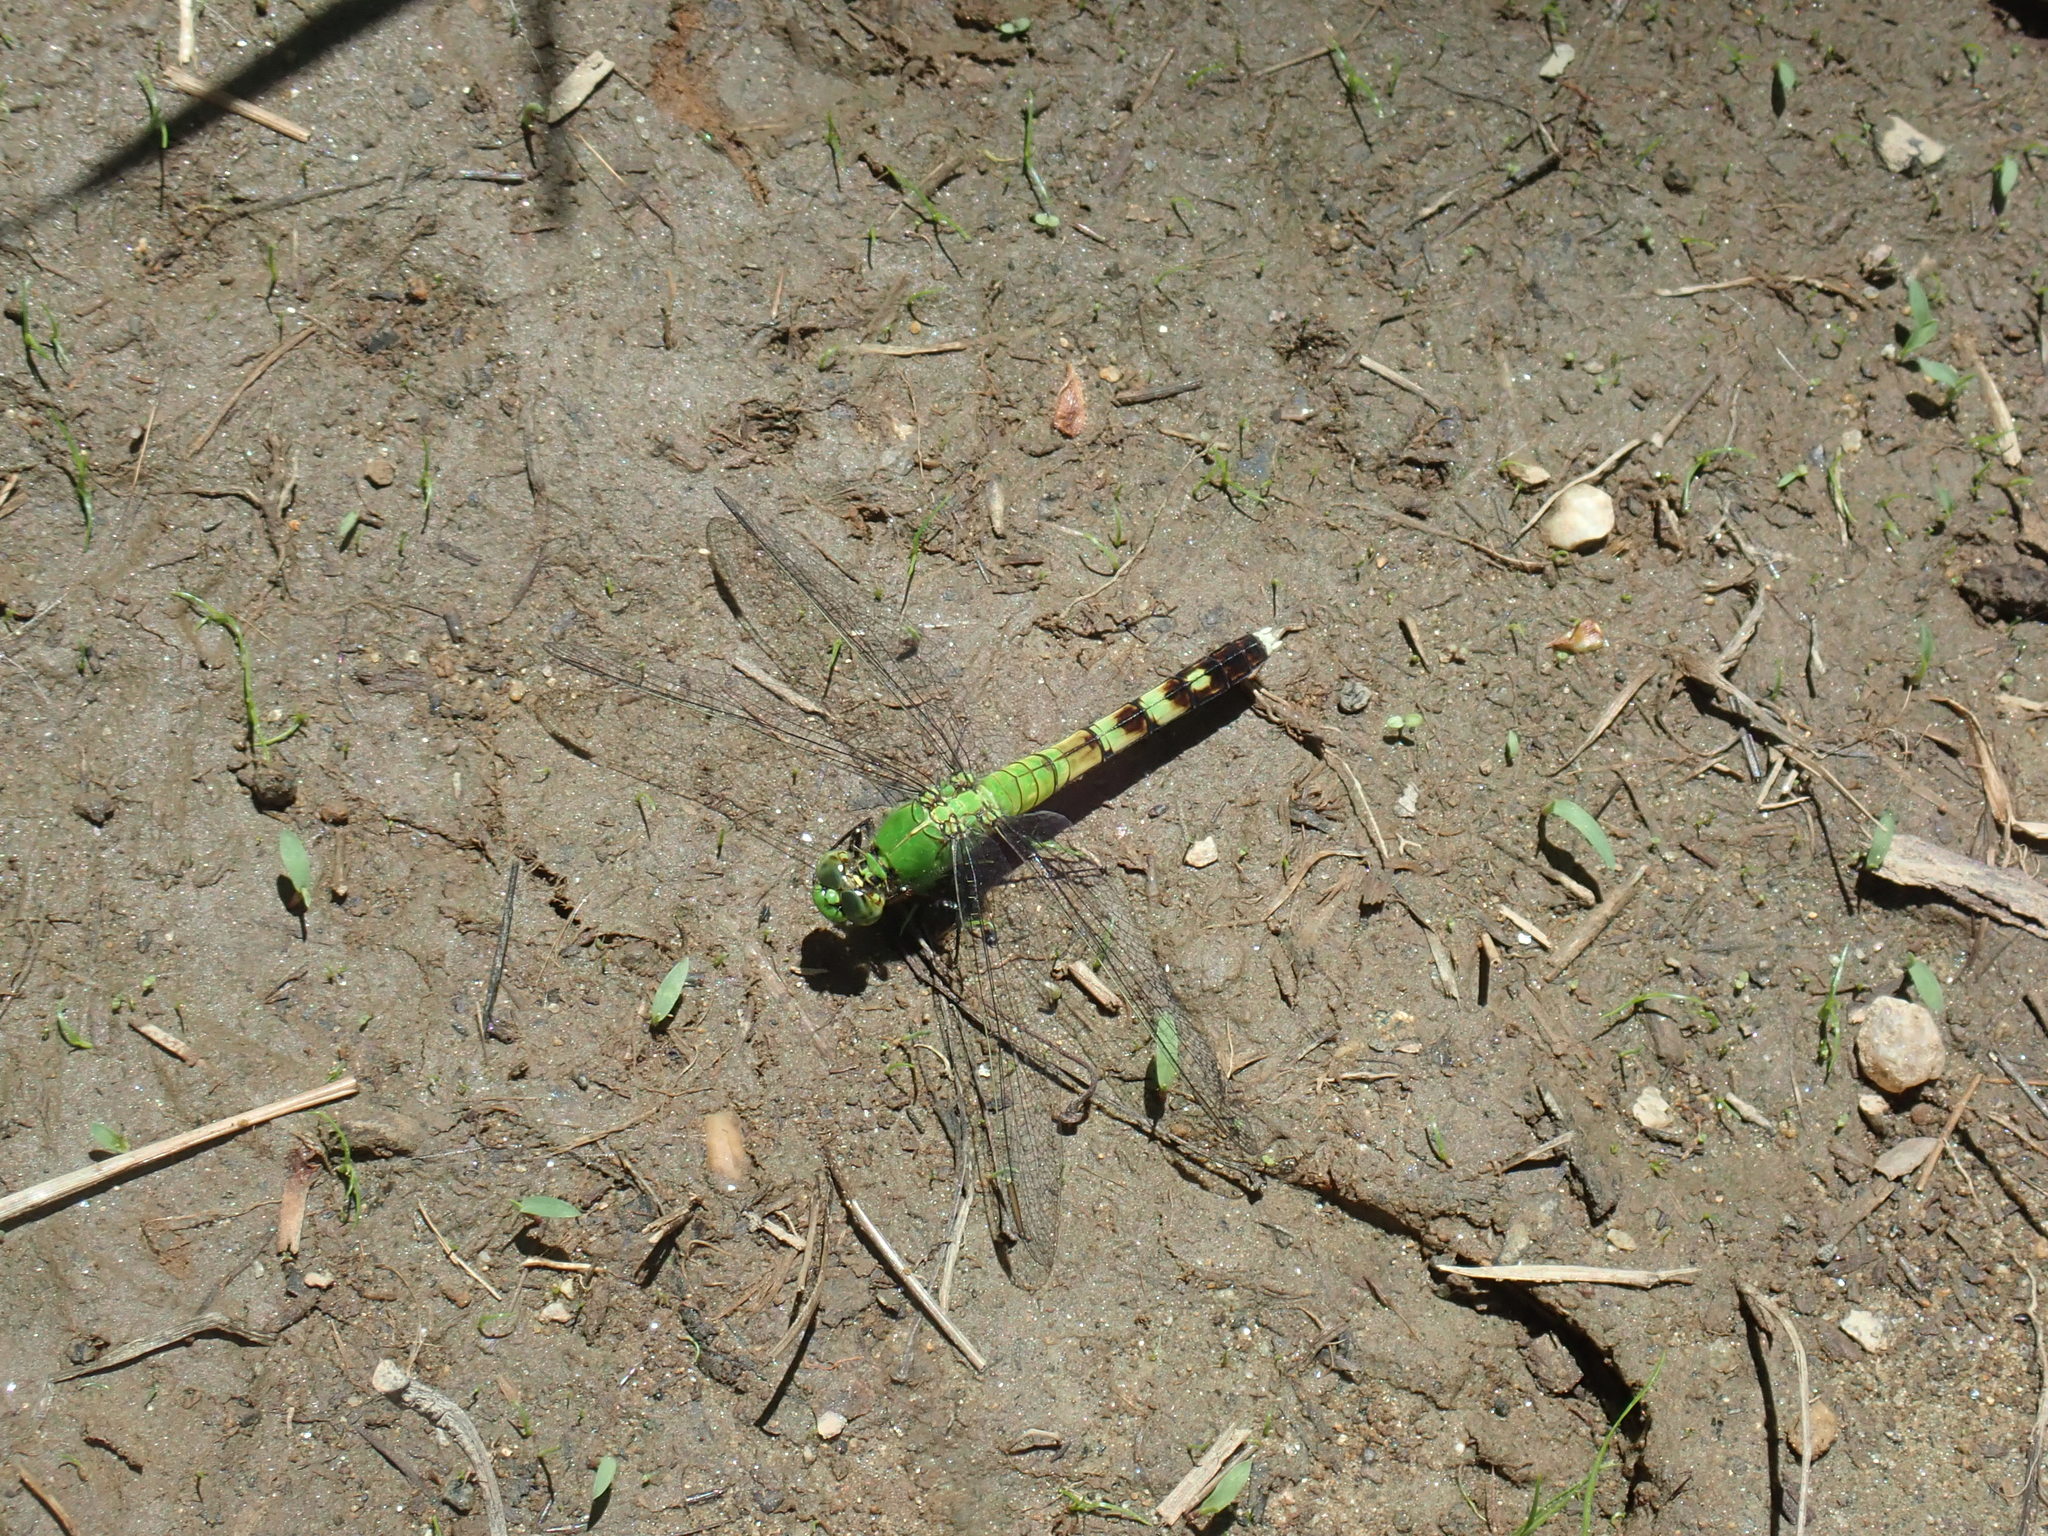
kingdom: Animalia
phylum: Arthropoda
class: Insecta
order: Odonata
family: Libellulidae
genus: Erythemis
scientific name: Erythemis simplicicollis
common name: Eastern pondhawk
